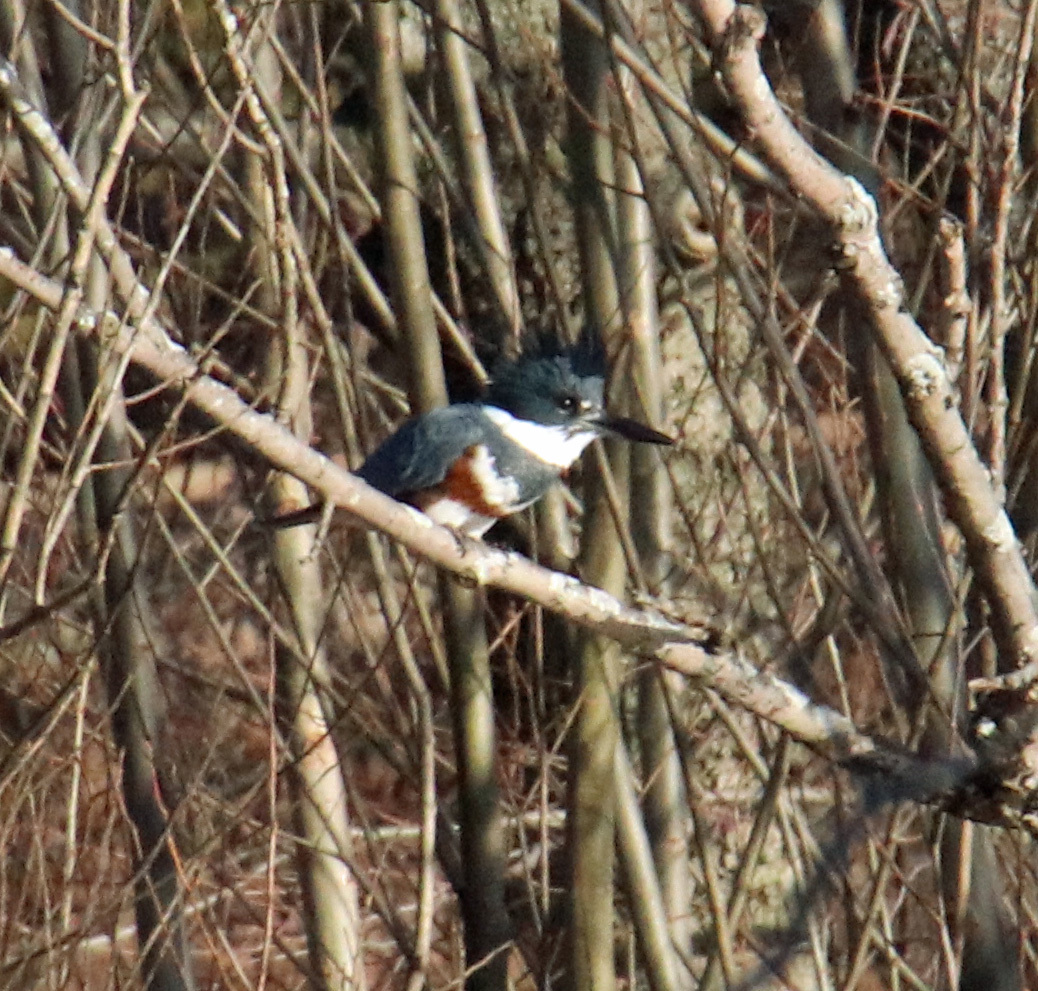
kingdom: Animalia
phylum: Chordata
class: Aves
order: Coraciiformes
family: Alcedinidae
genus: Megaceryle
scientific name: Megaceryle alcyon
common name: Belted kingfisher
